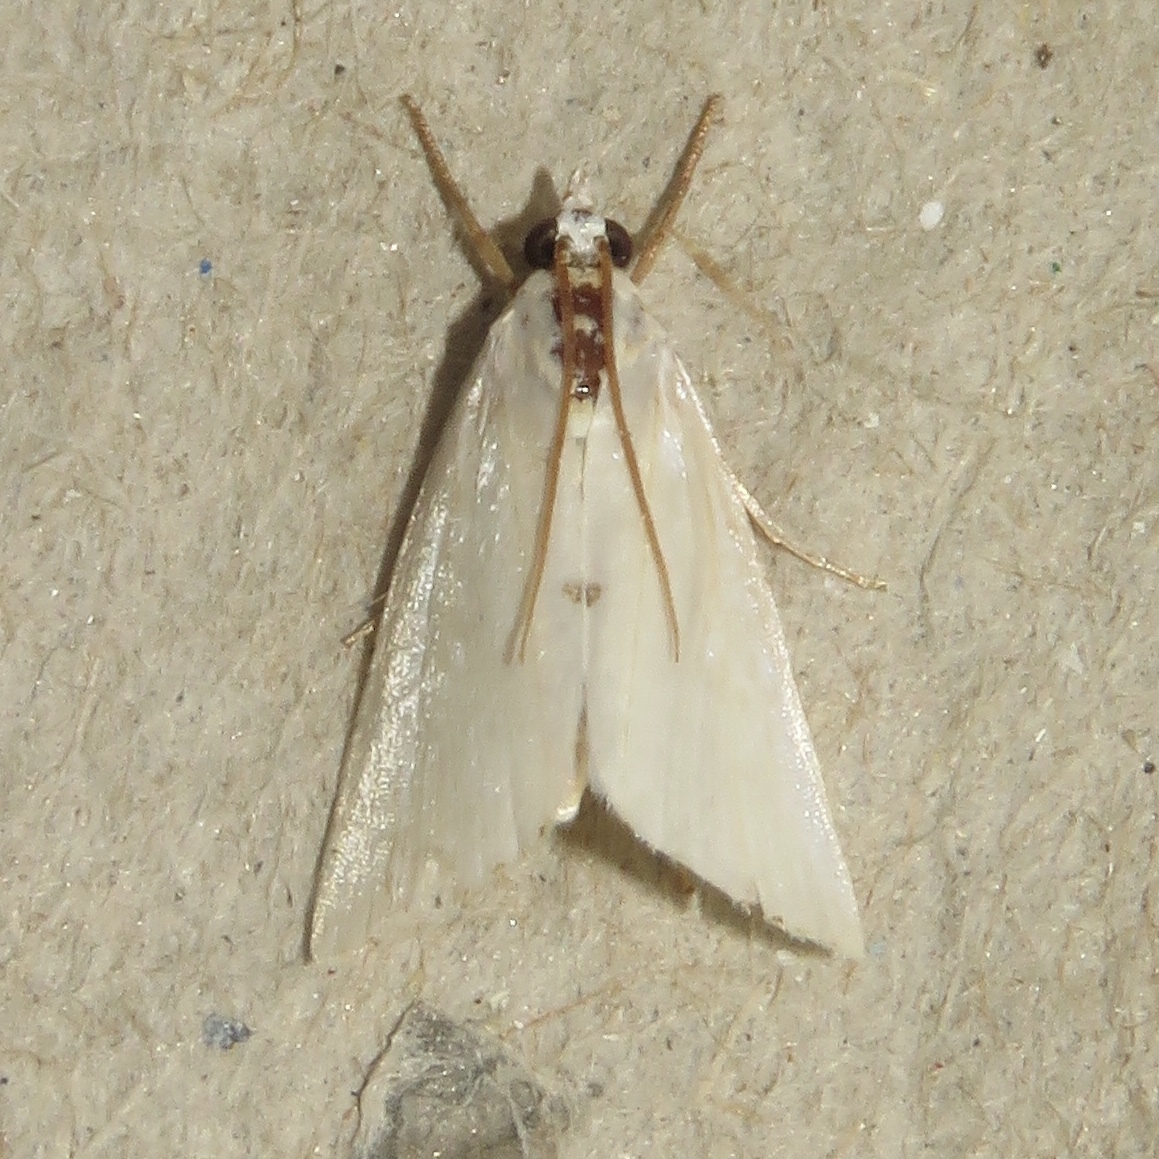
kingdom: Animalia
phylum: Arthropoda
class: Insecta
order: Lepidoptera
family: Crambidae
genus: Argyria
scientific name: Argyria nivalis
